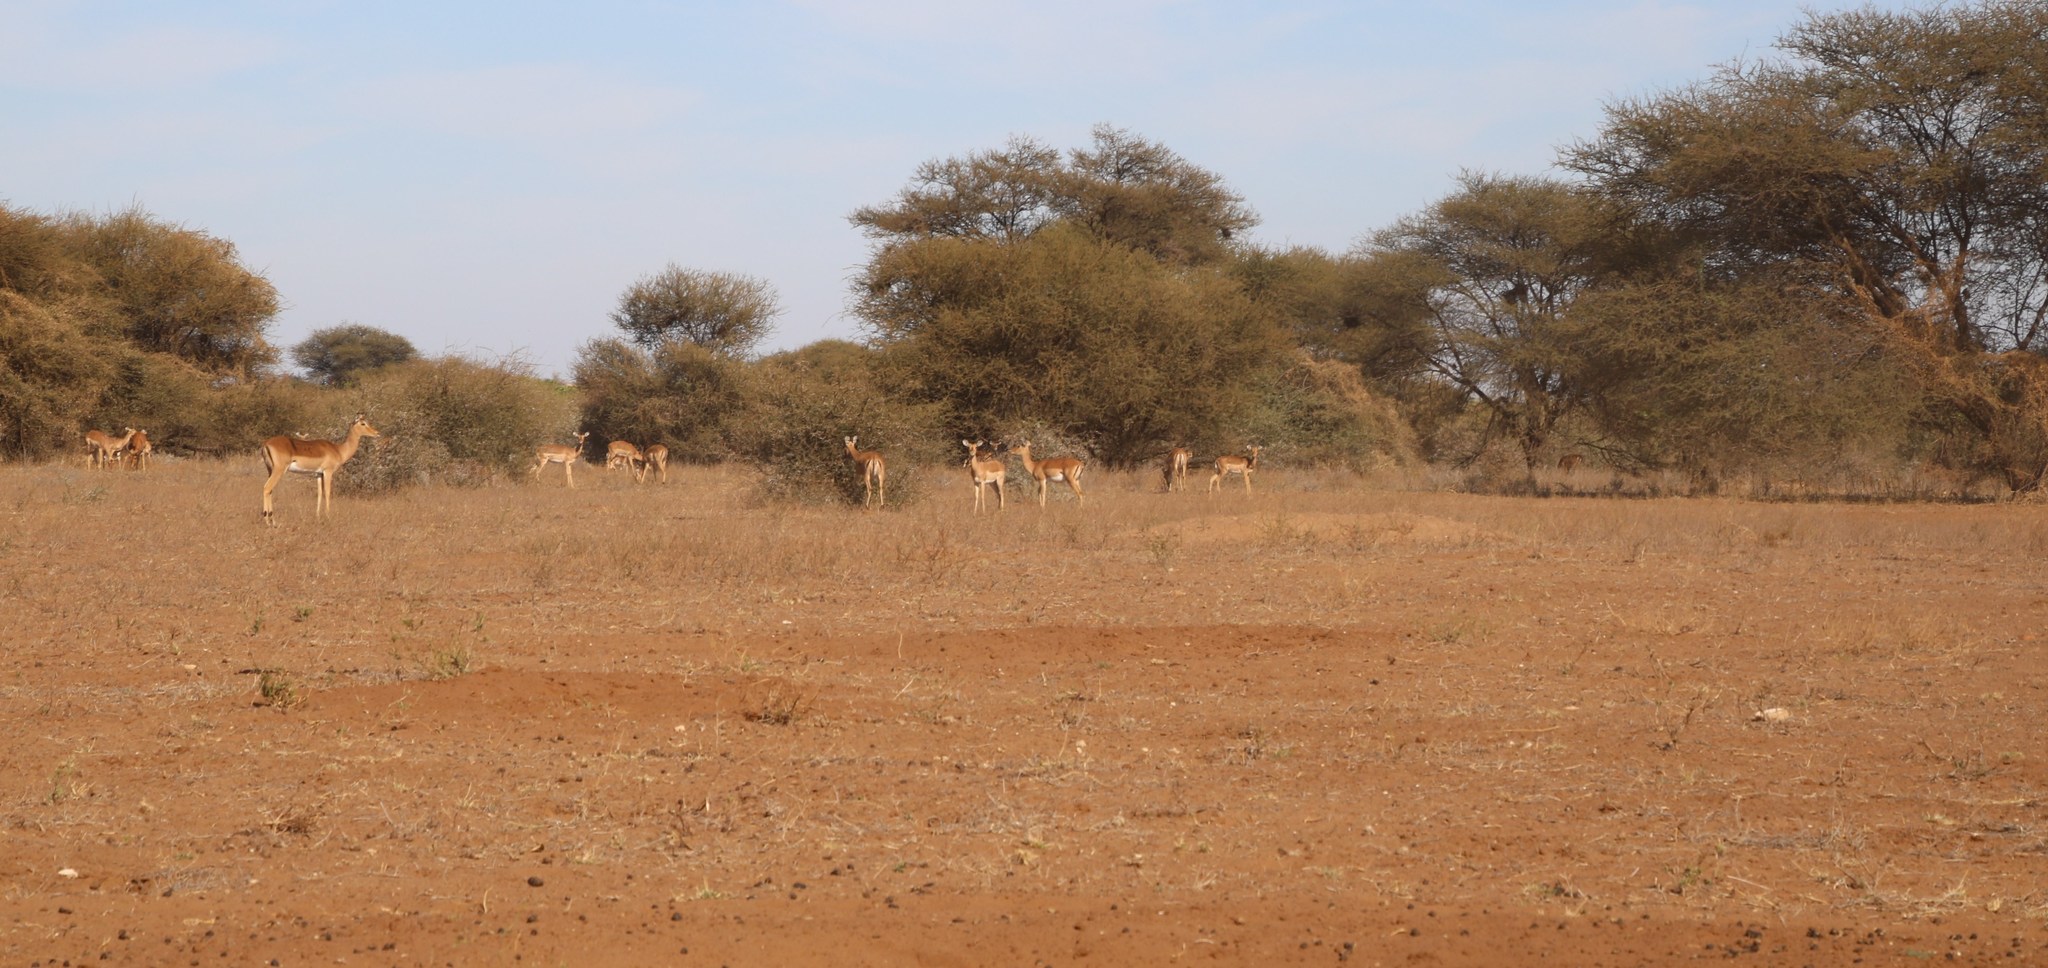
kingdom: Animalia
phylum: Chordata
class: Mammalia
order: Artiodactyla
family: Bovidae
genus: Aepyceros
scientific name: Aepyceros melampus
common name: Impala
